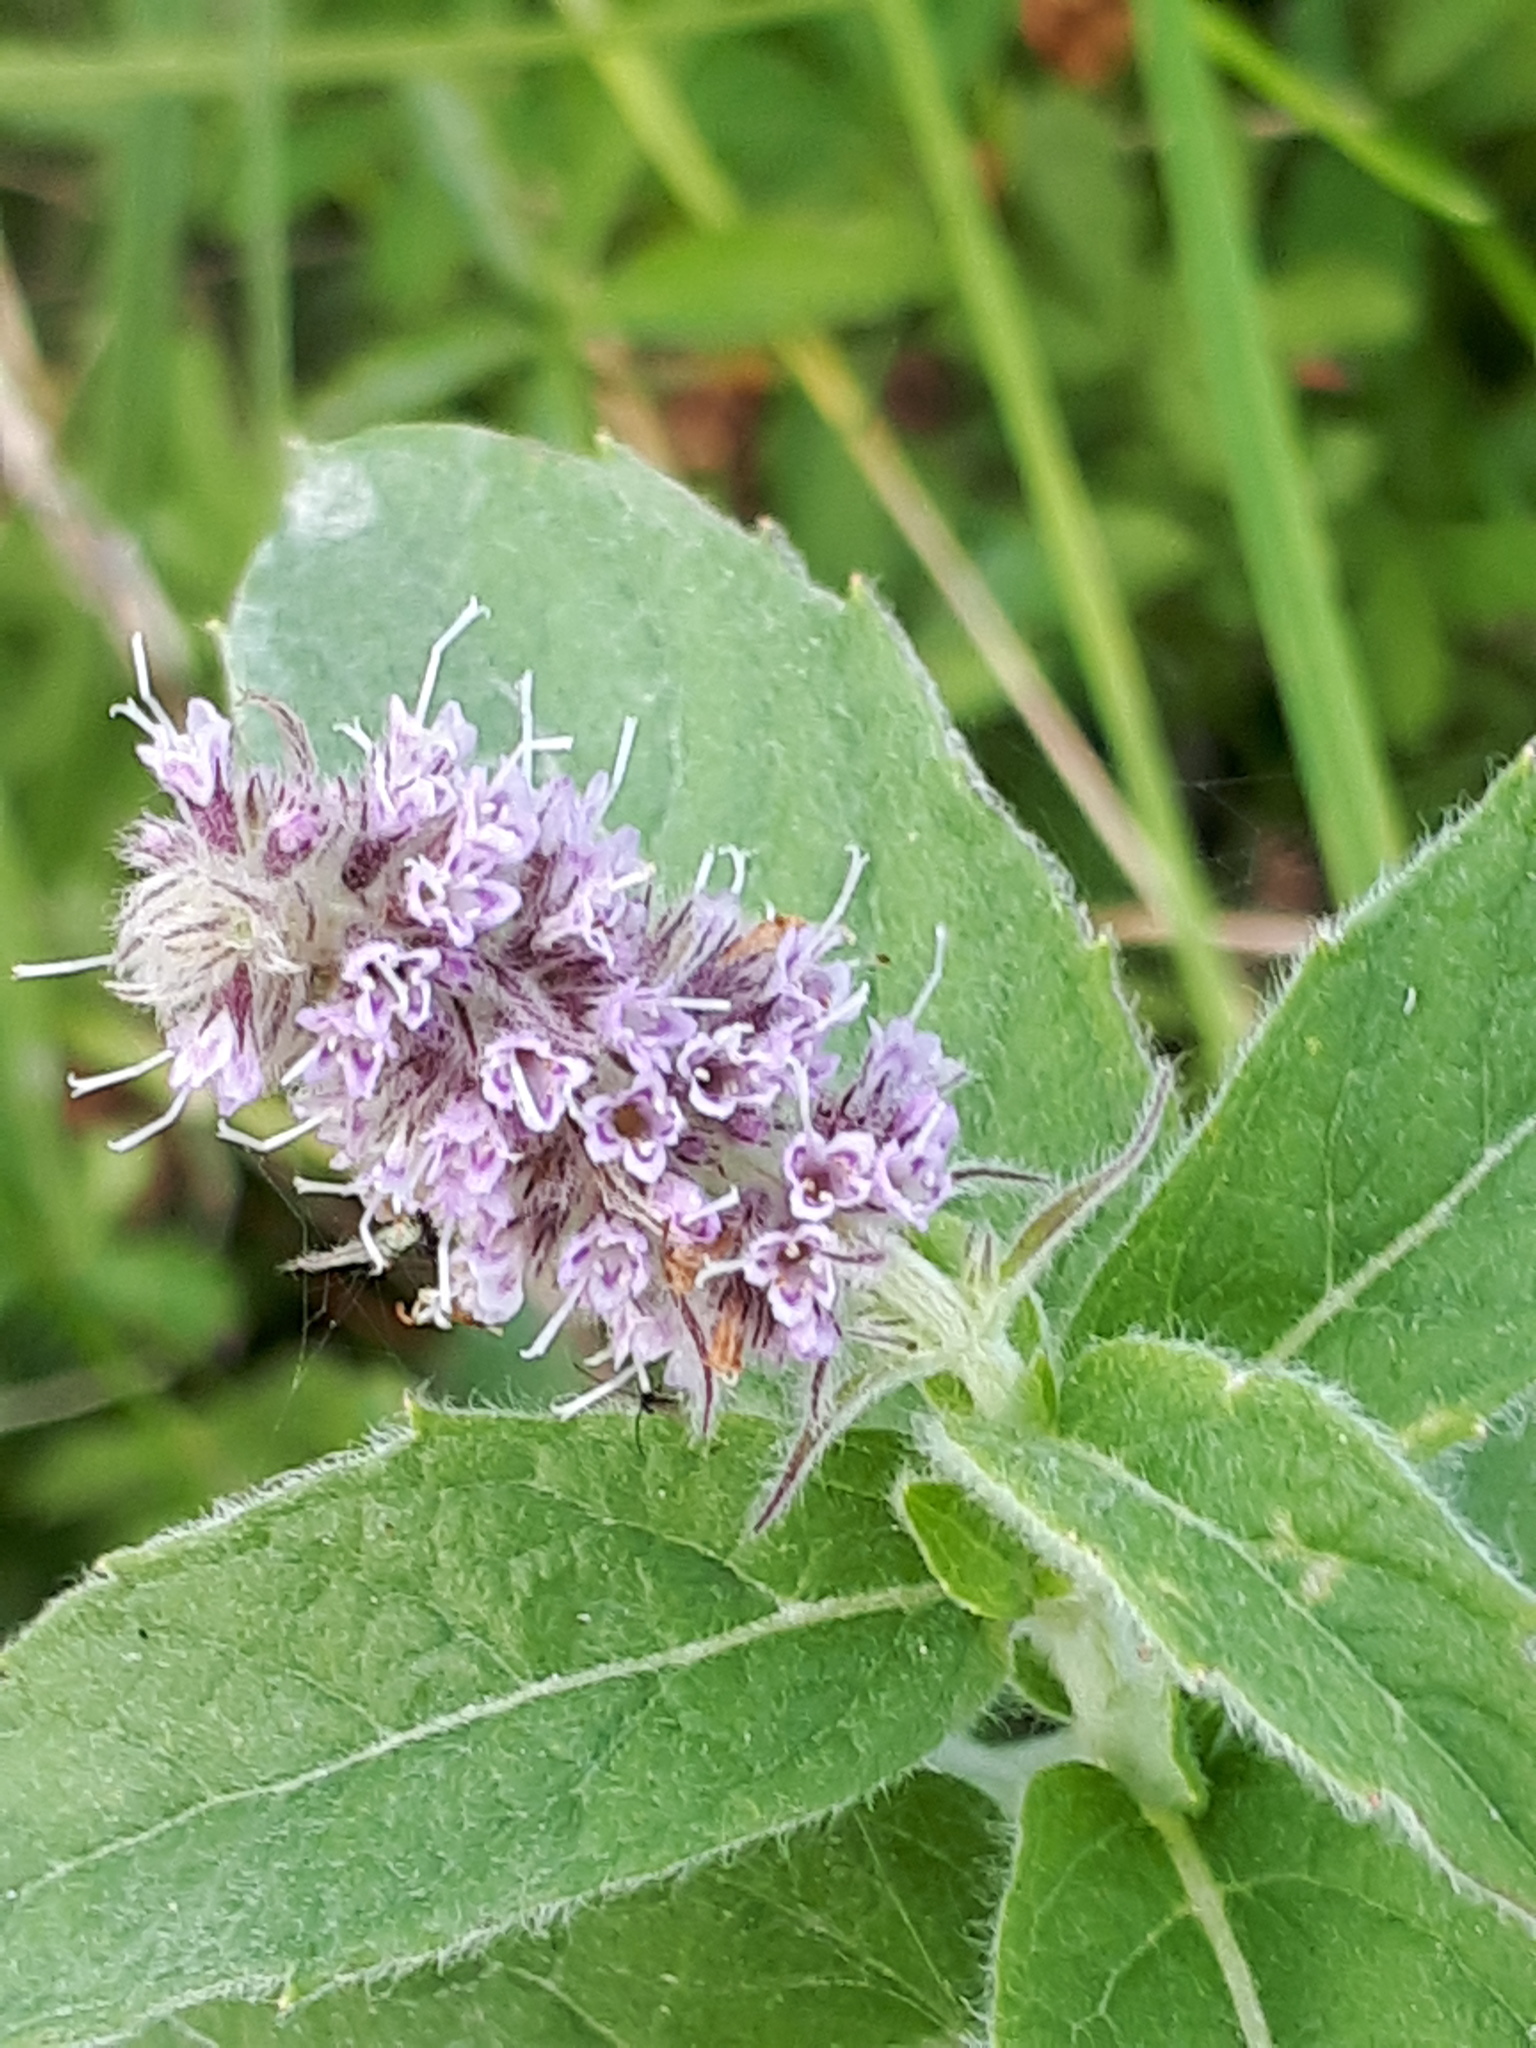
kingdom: Plantae
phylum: Tracheophyta
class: Magnoliopsida
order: Lamiales
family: Lamiaceae
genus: Mentha
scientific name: Mentha longifolia
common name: Horse mint
